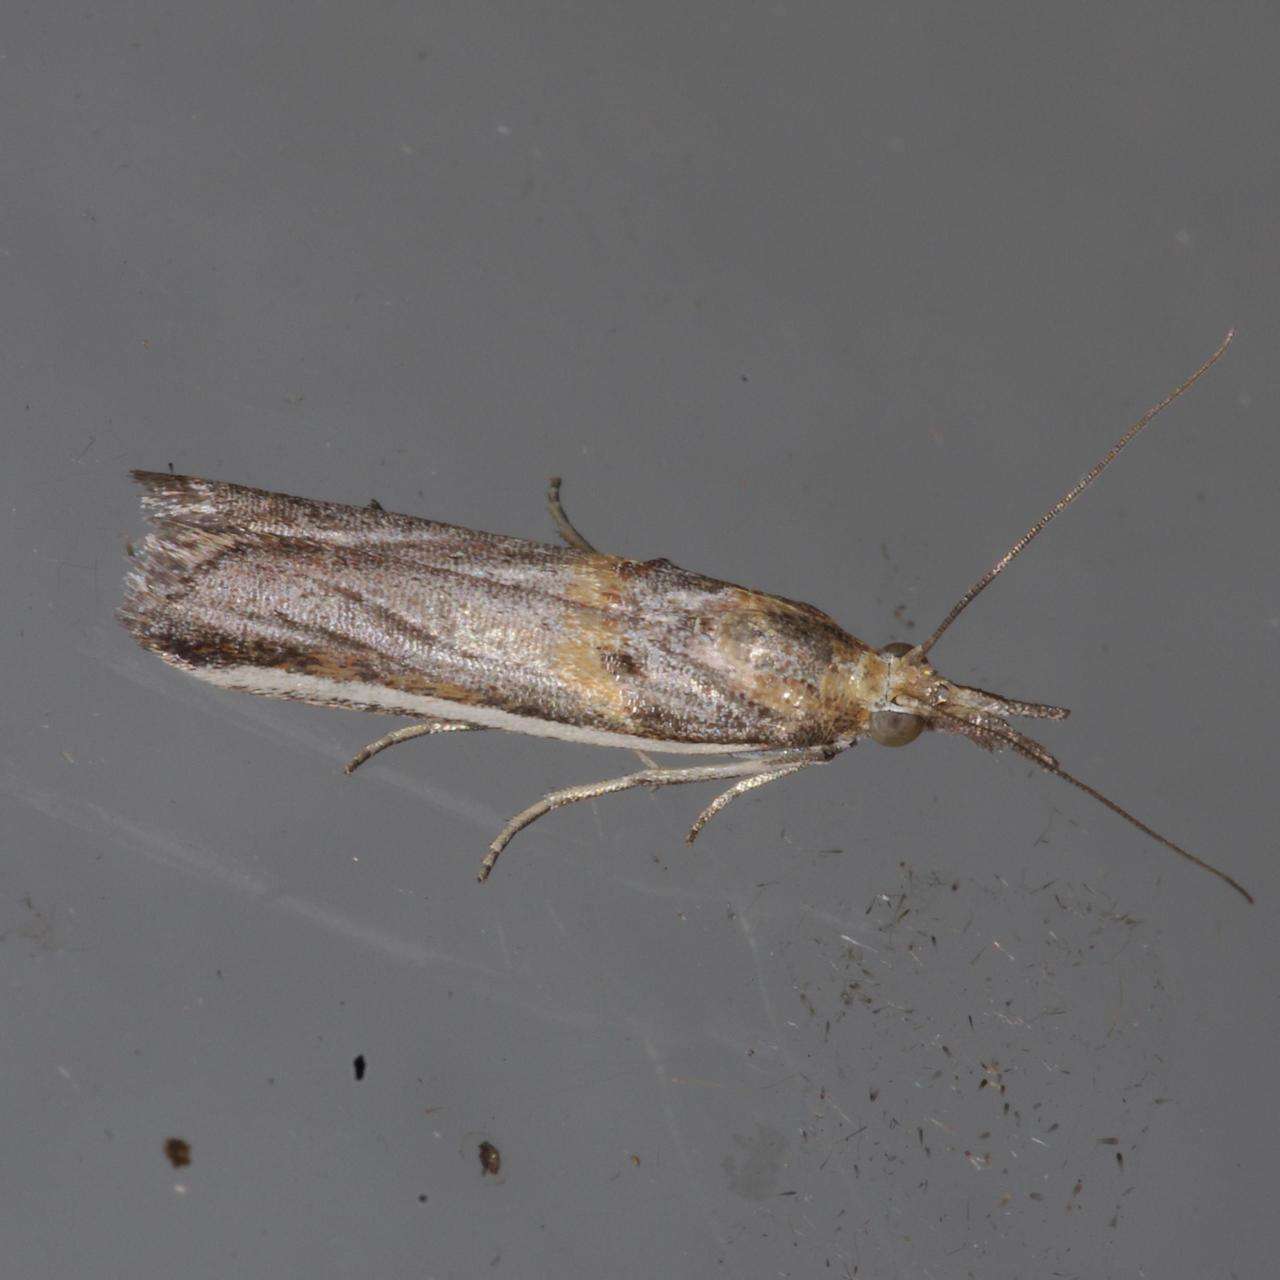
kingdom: Animalia
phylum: Arthropoda
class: Insecta
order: Lepidoptera
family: Pyralidae
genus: Etiella
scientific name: Etiella behrii
